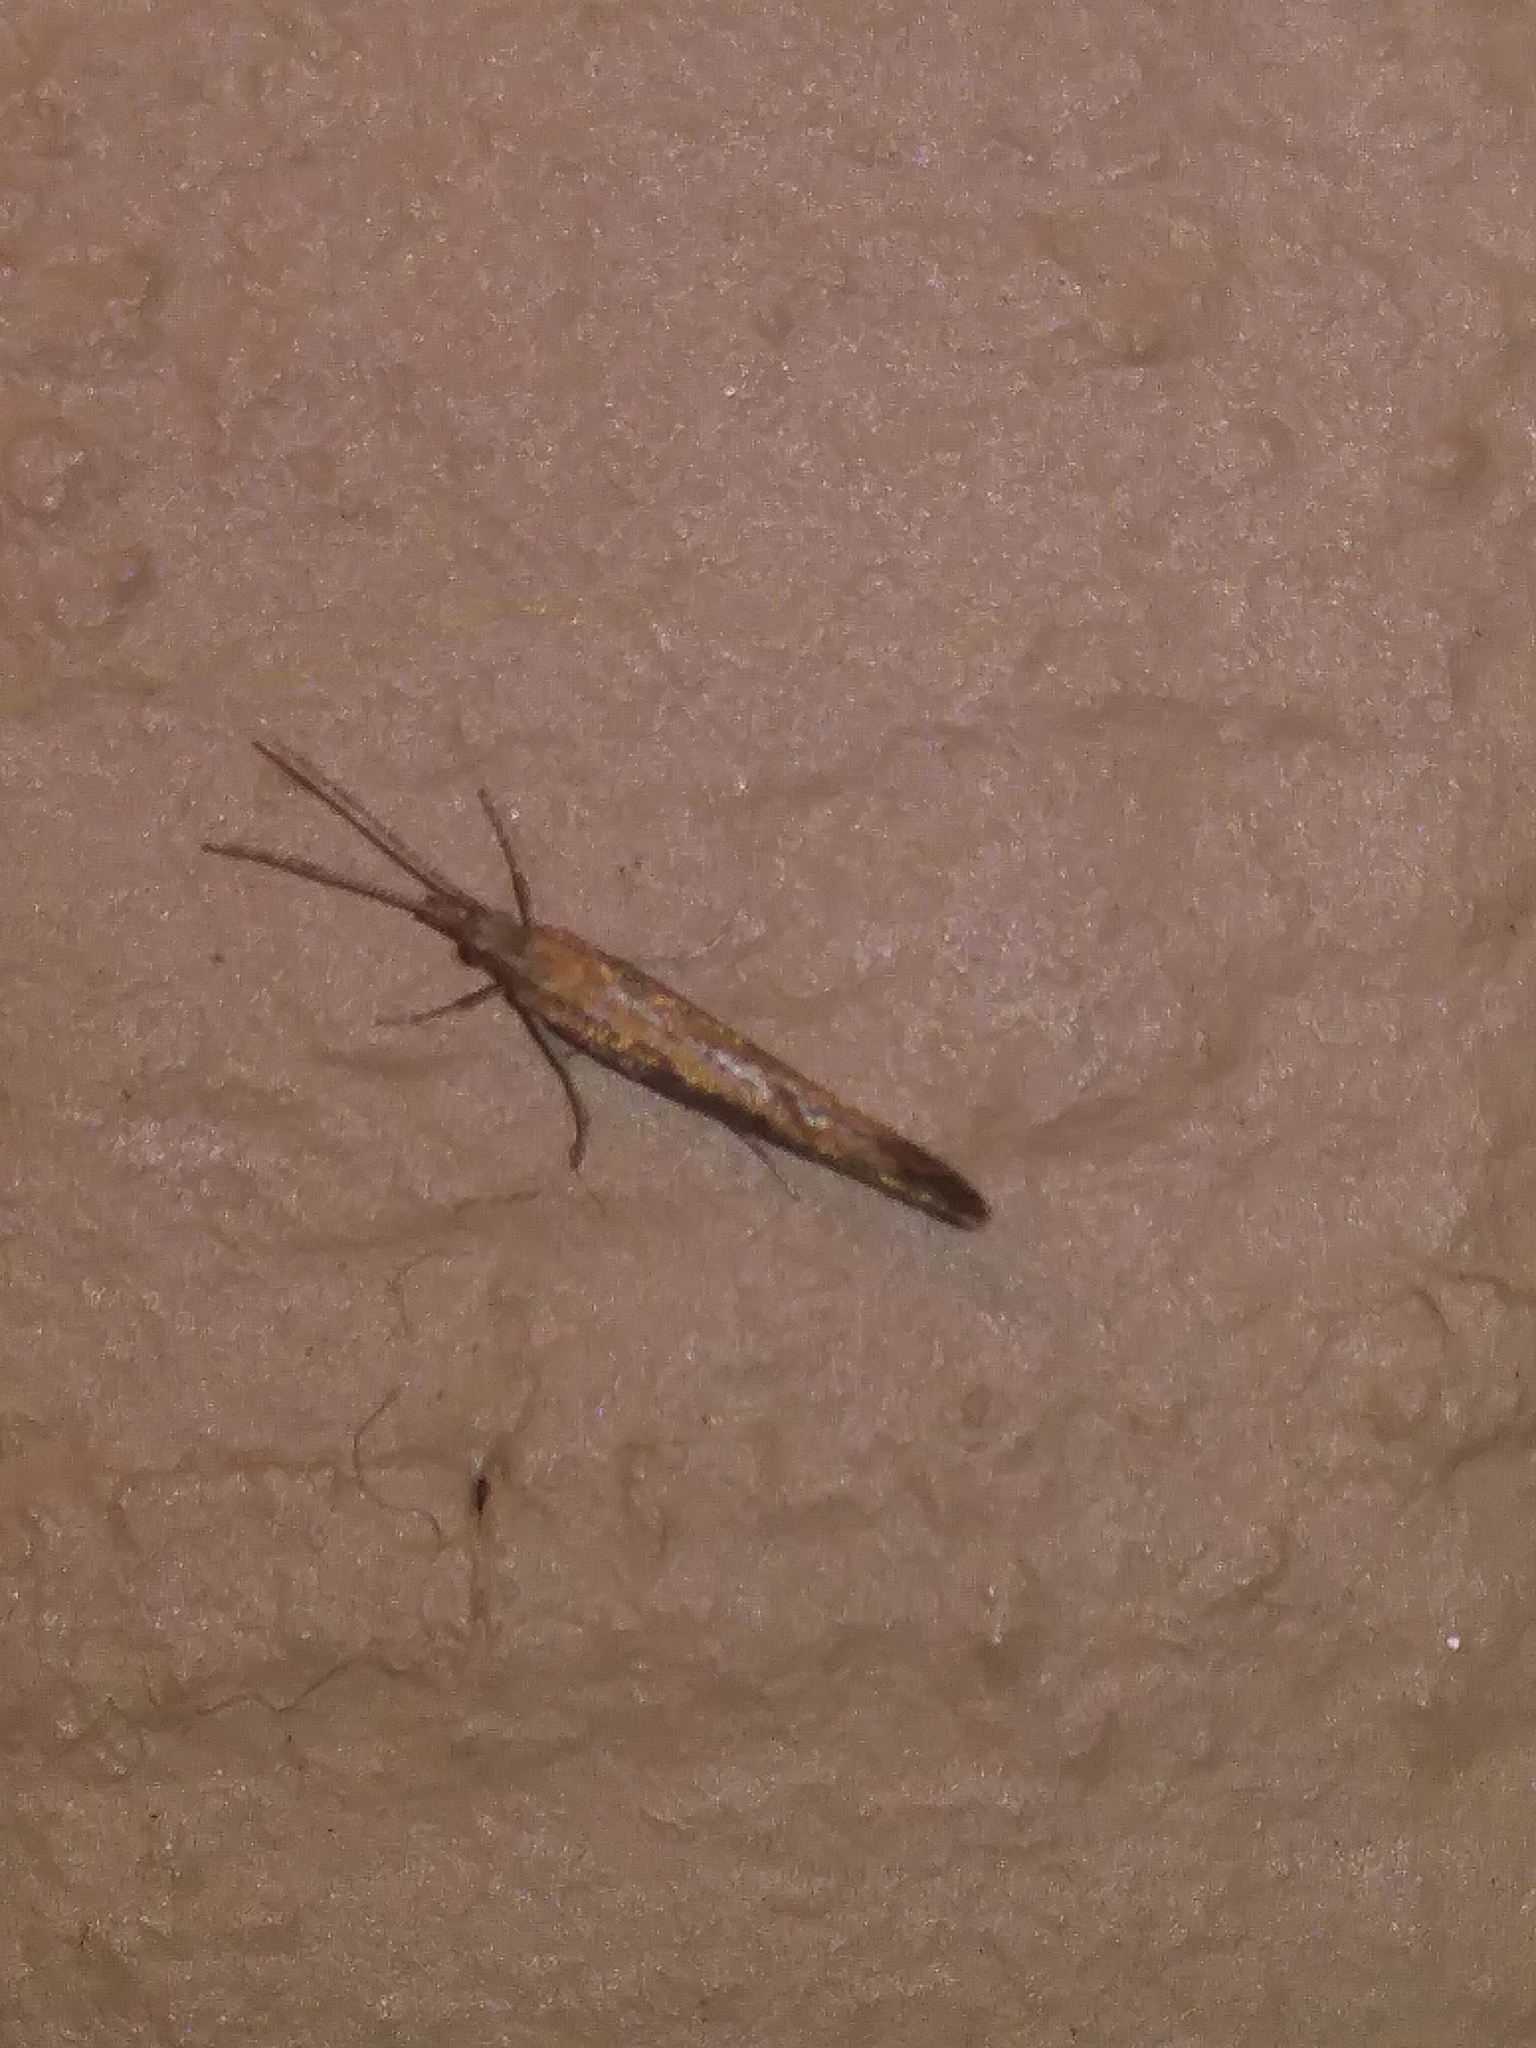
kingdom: Animalia
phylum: Arthropoda
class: Arachnida
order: Araneae
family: Tetragnathidae
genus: Leucauge
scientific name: Leucauge venusta
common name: Longjawed orb weavers
